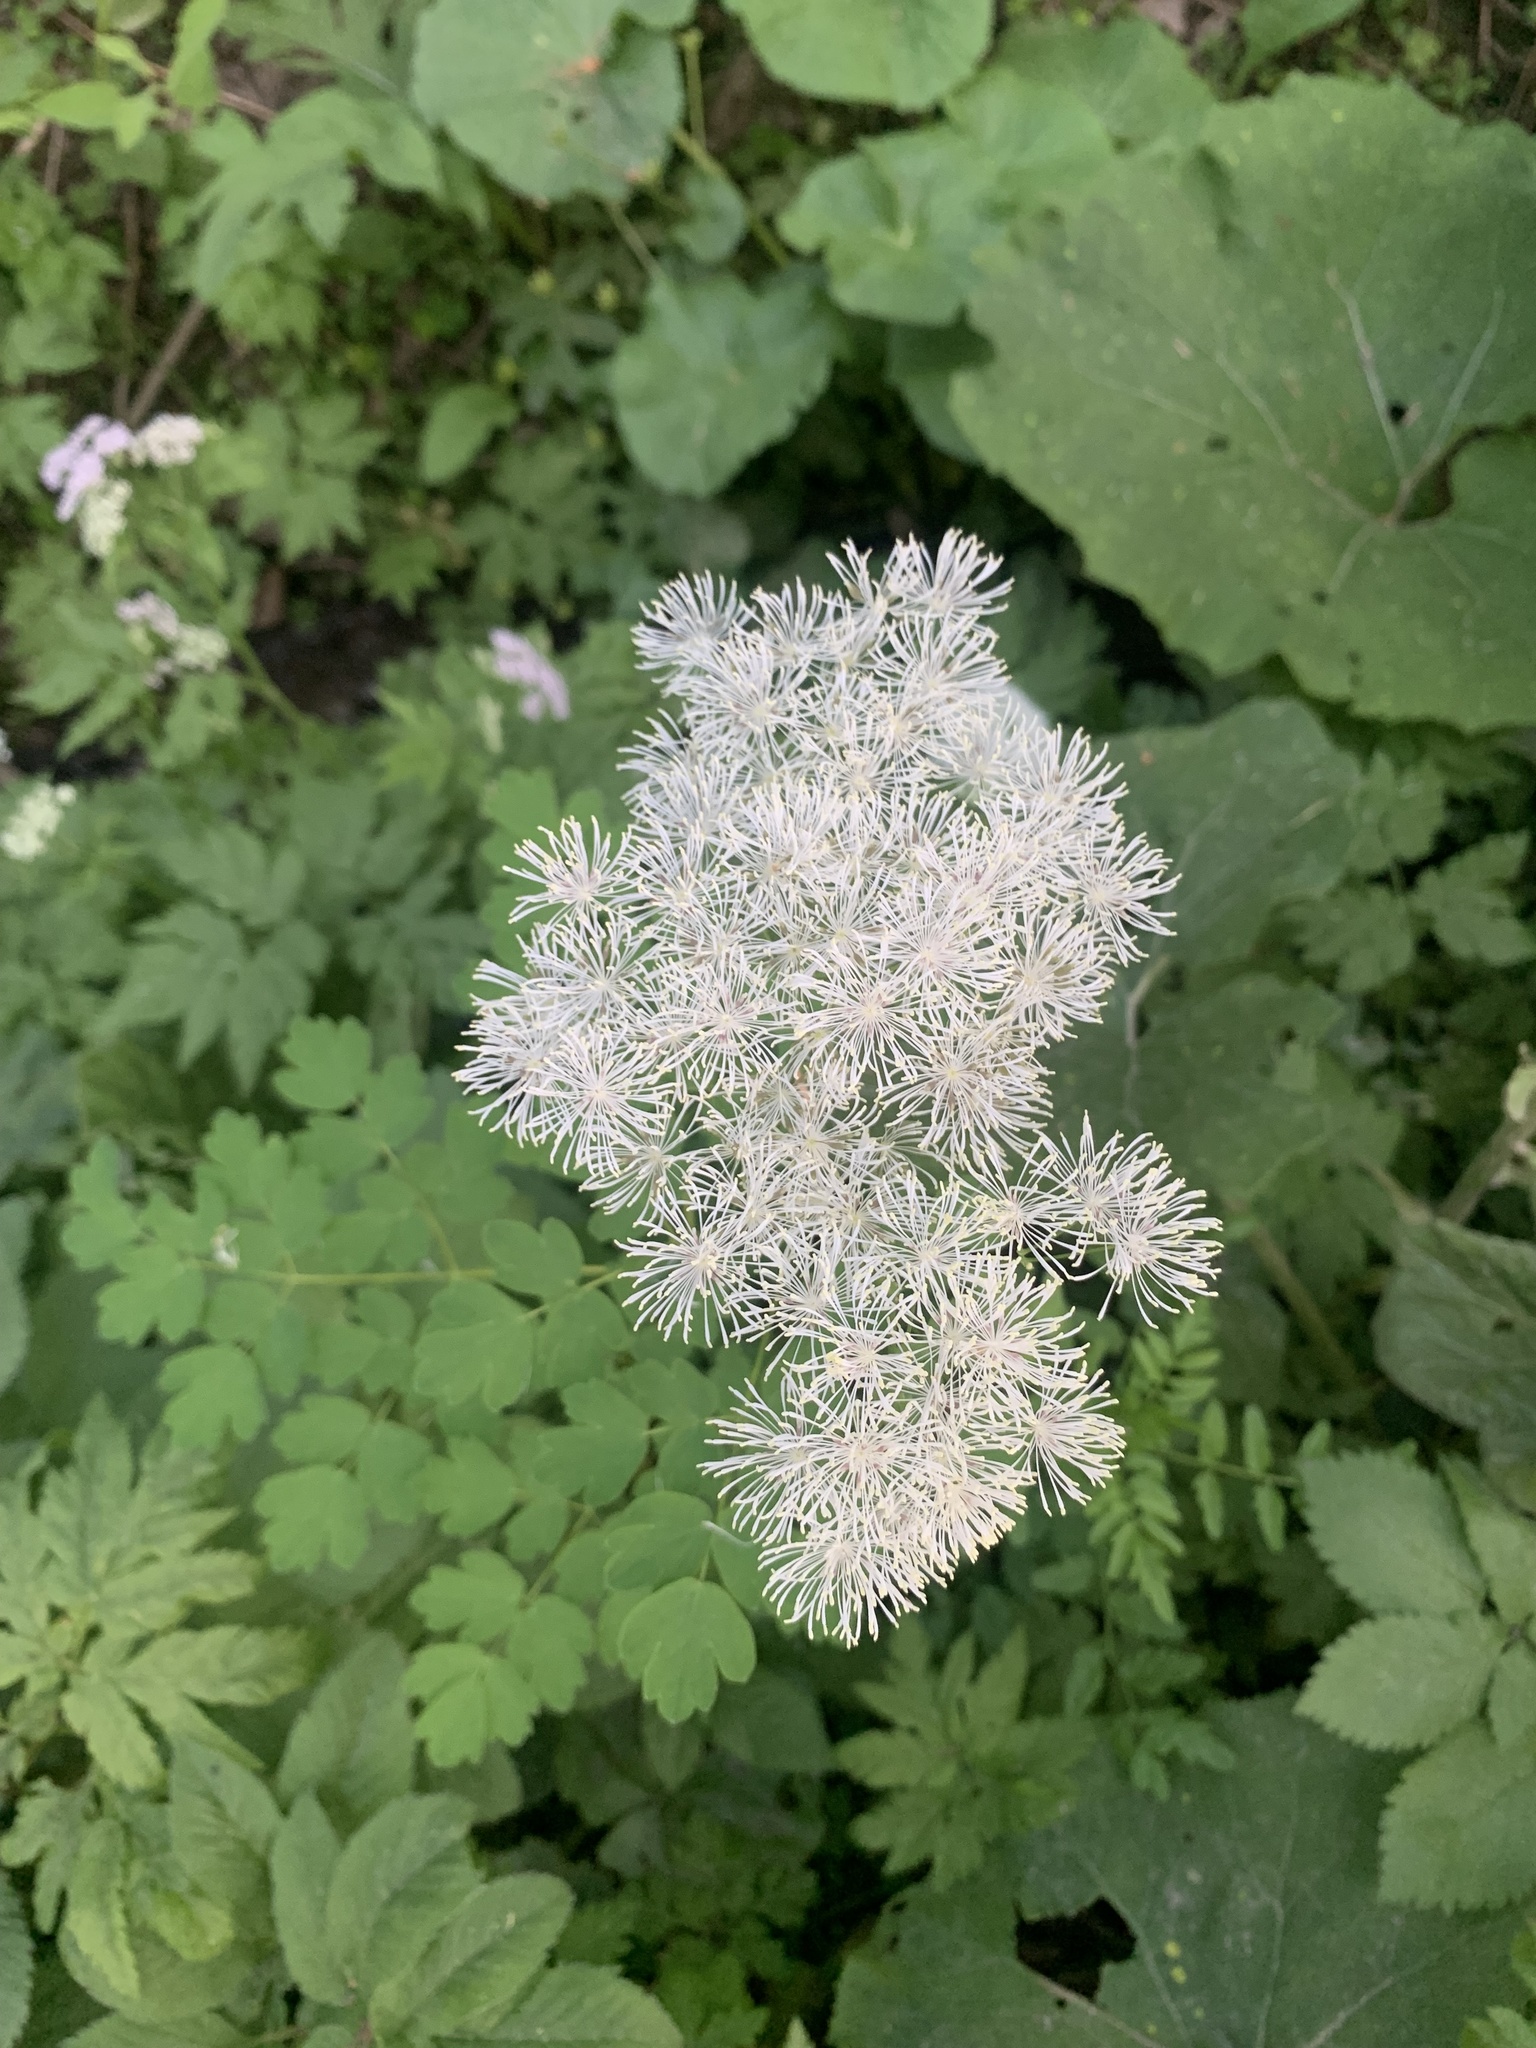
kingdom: Plantae
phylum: Tracheophyta
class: Magnoliopsida
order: Ranunculales
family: Ranunculaceae
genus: Thalictrum
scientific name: Thalictrum aquilegiifolium
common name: French meadow-rue
